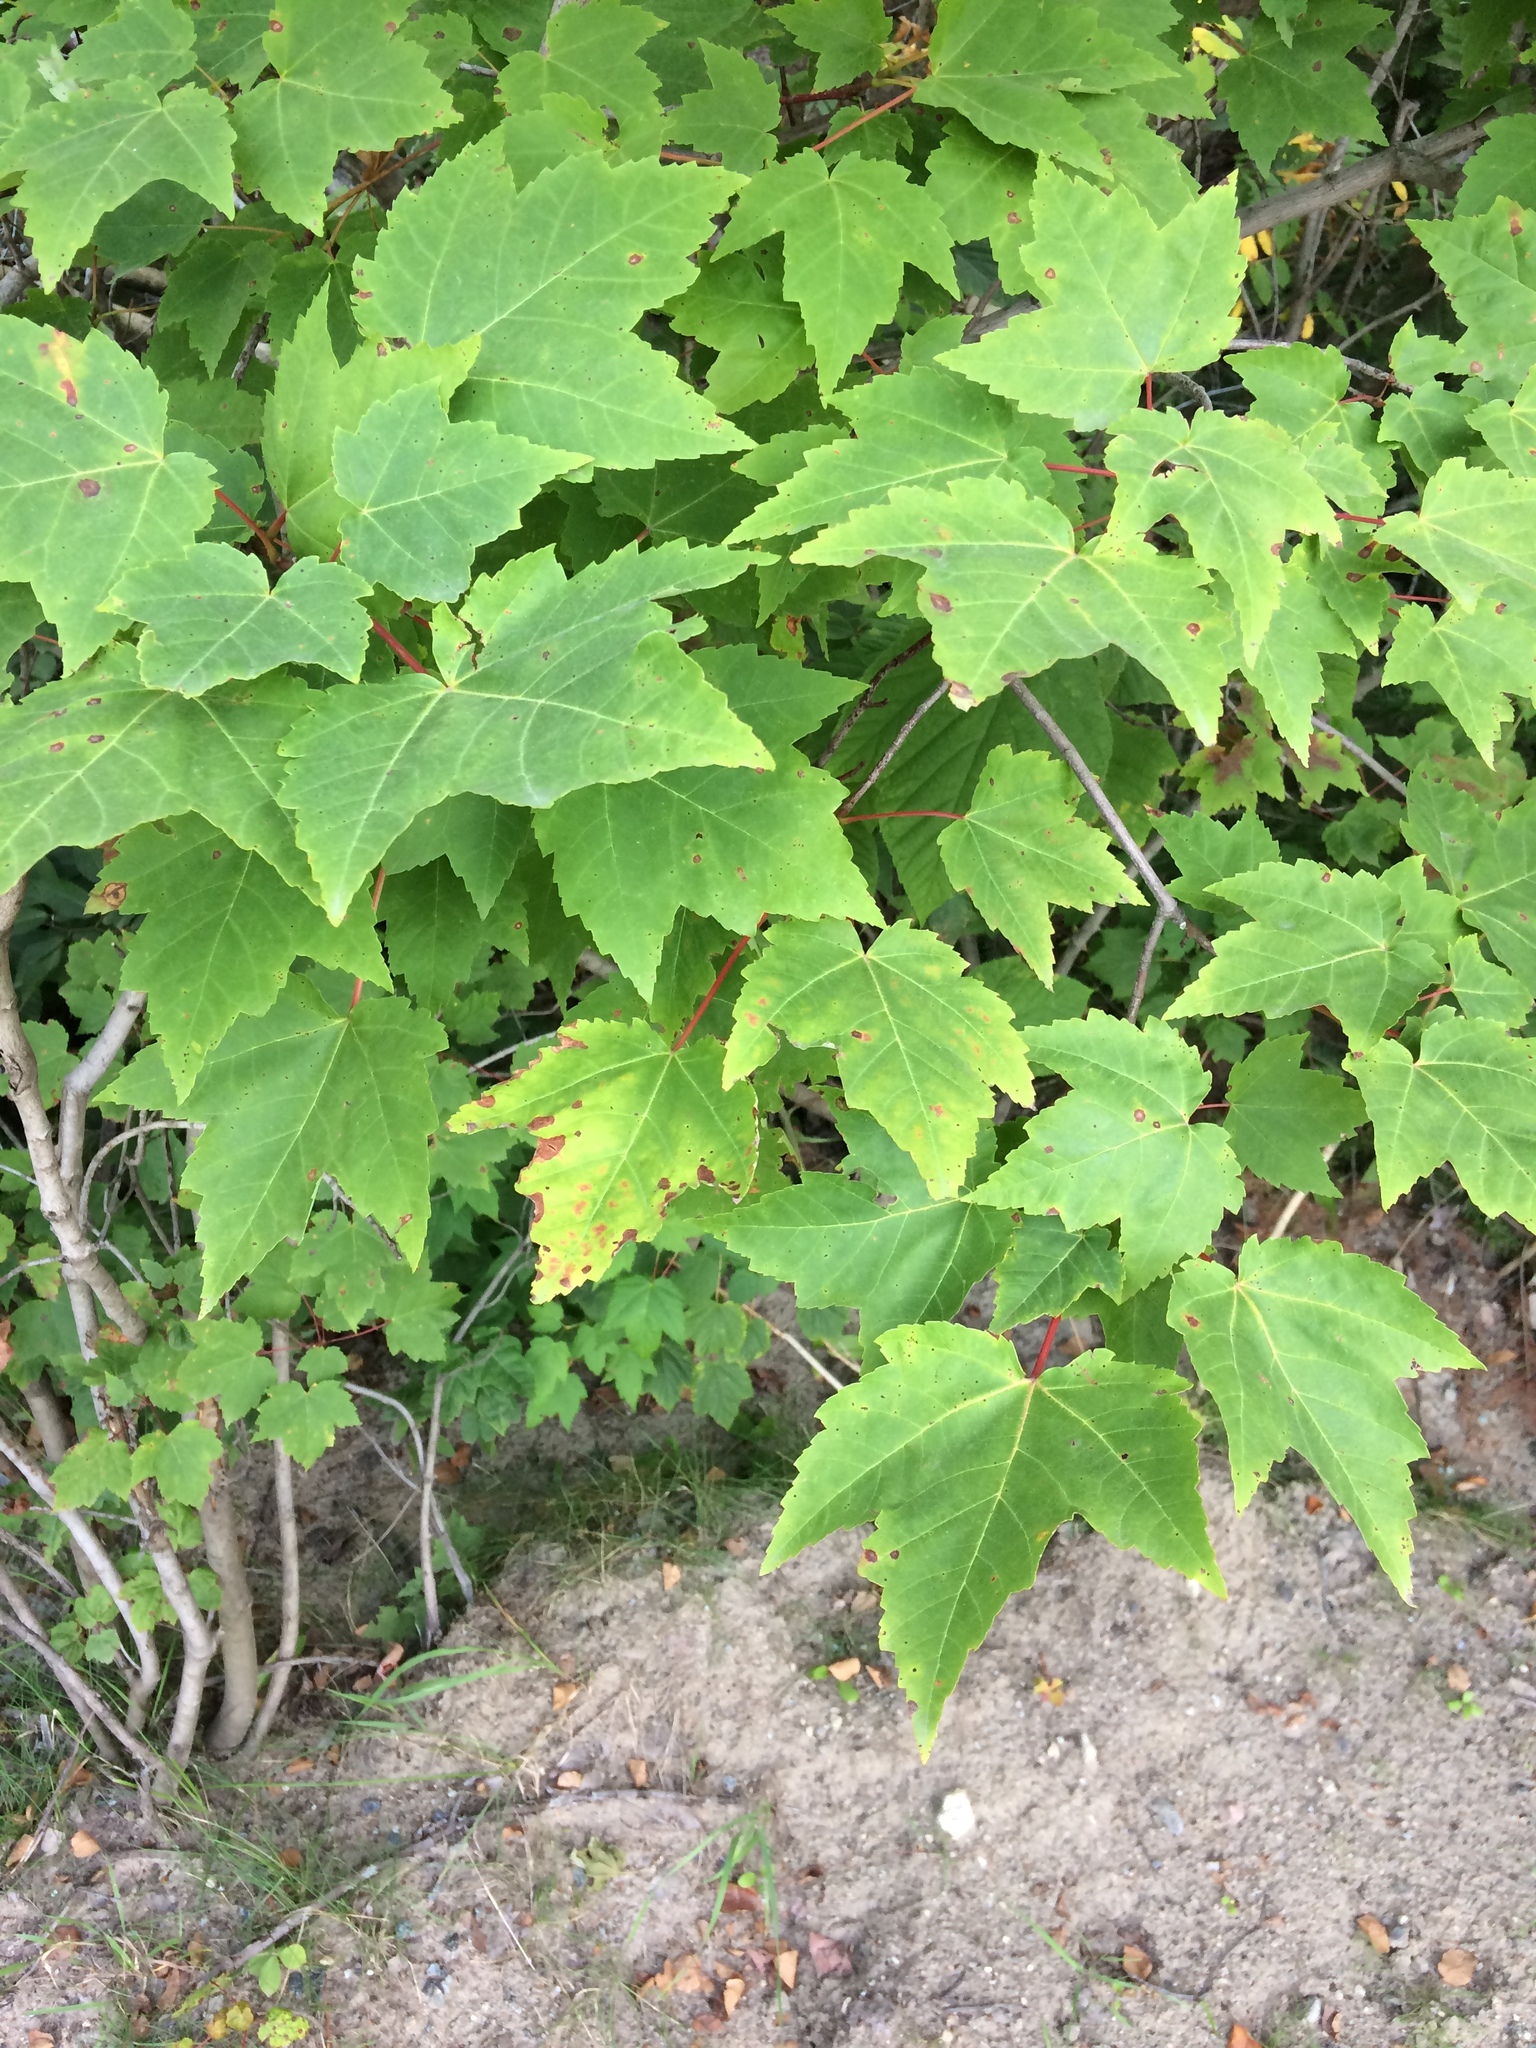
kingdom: Plantae
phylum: Tracheophyta
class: Magnoliopsida
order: Sapindales
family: Sapindaceae
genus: Acer
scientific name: Acer rubrum
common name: Red maple
